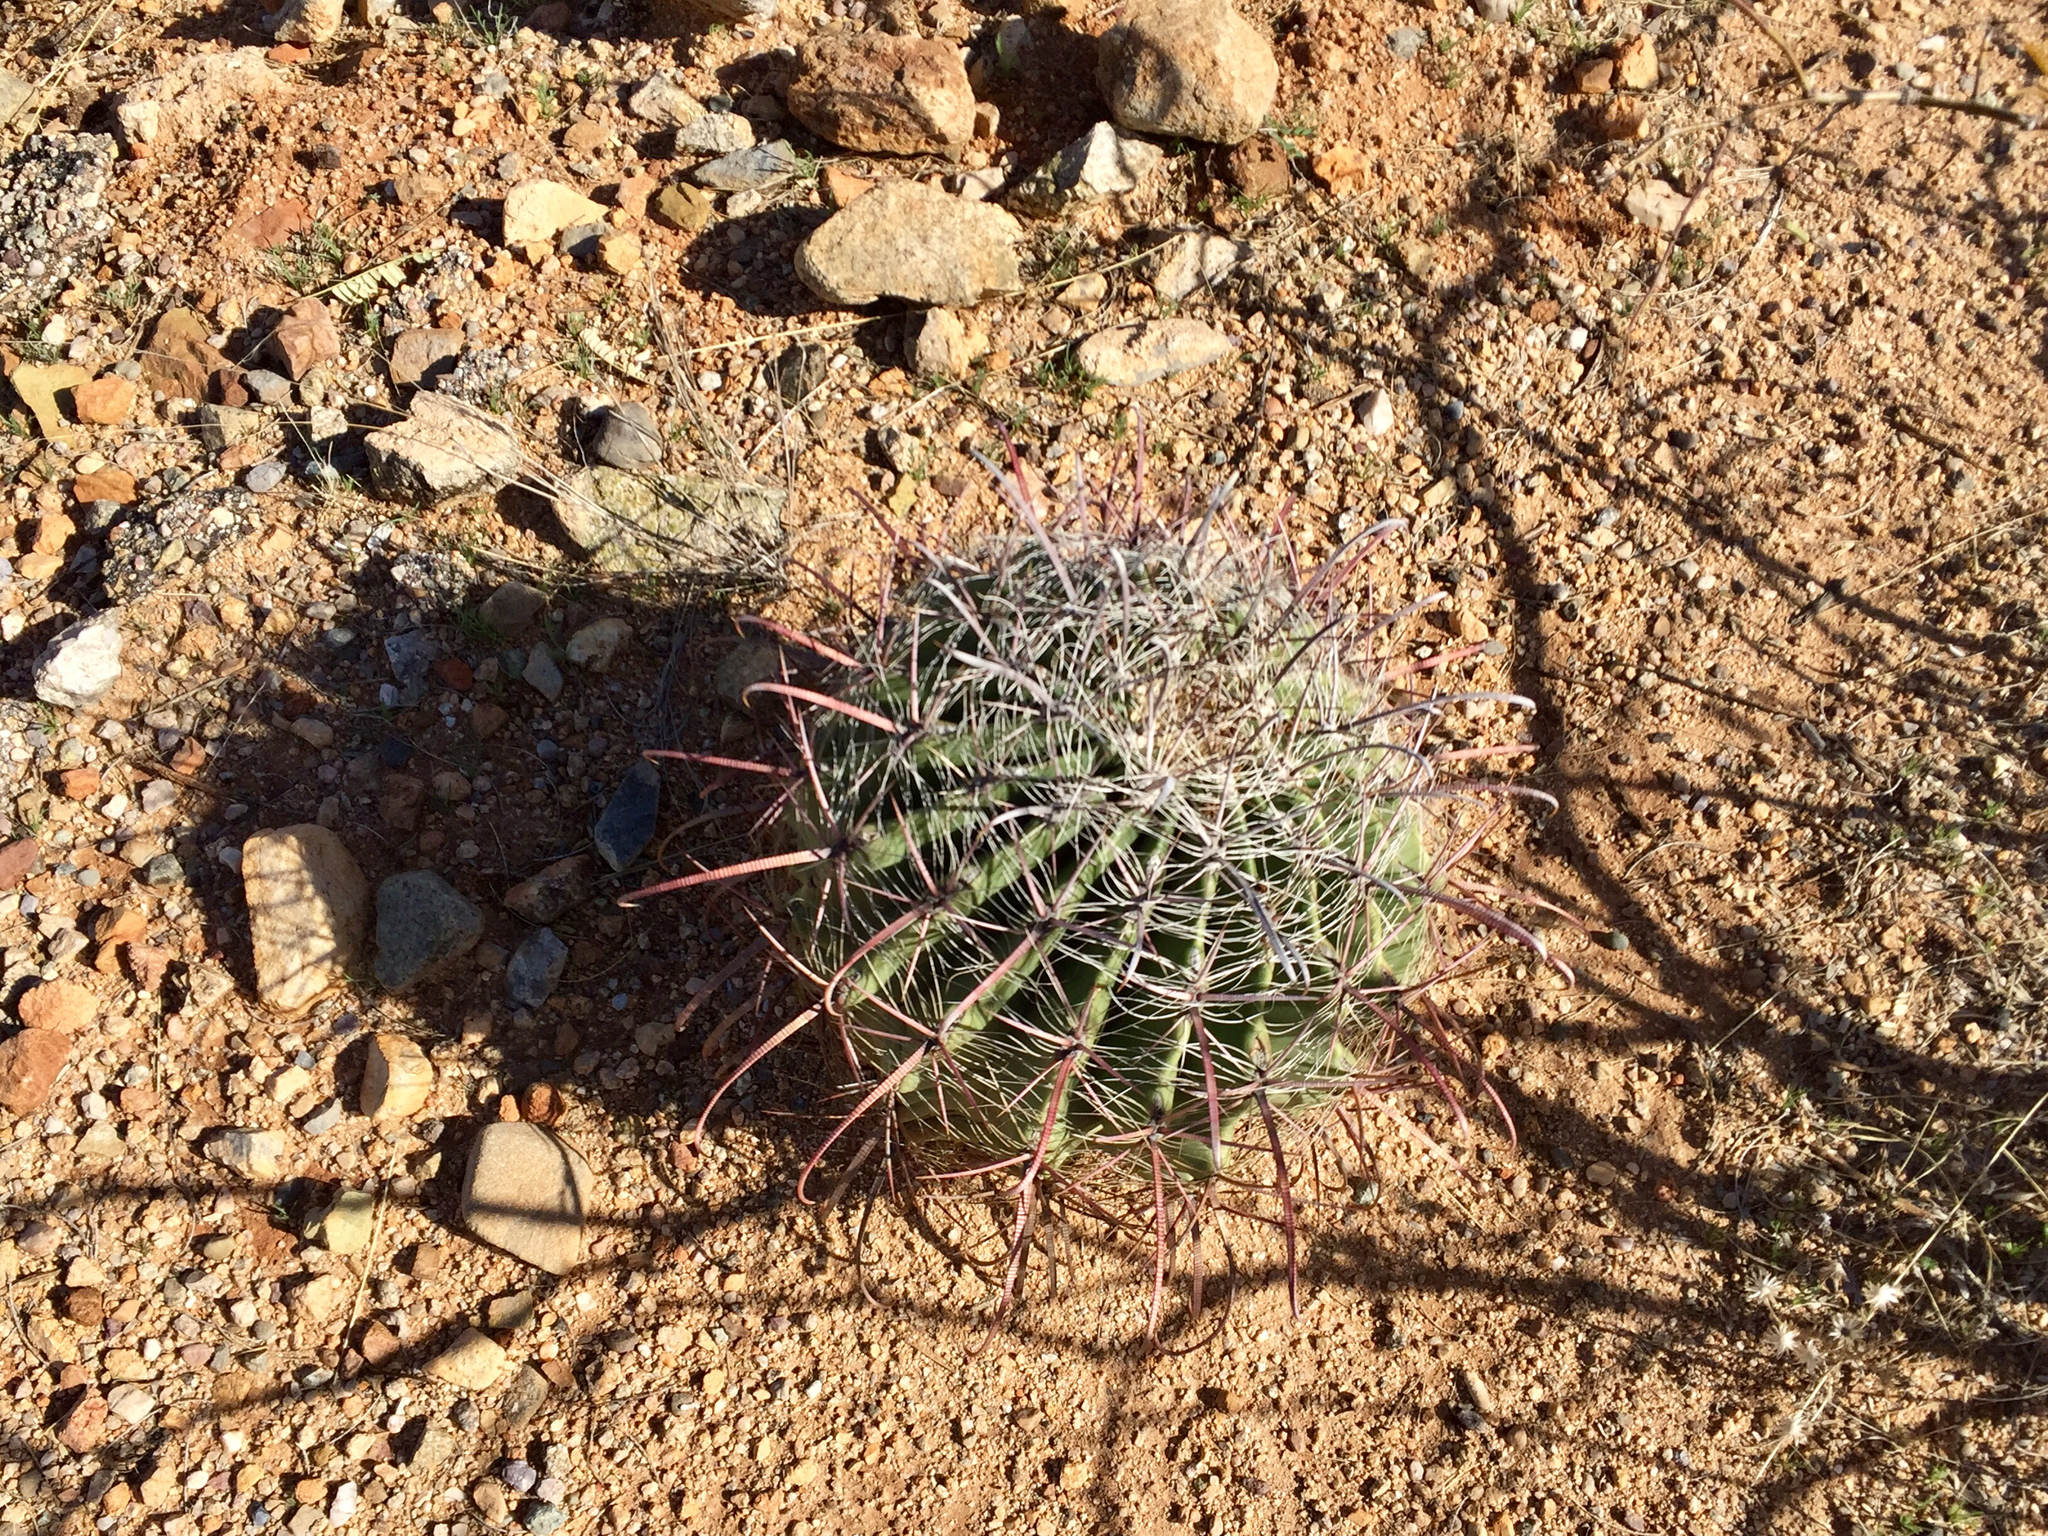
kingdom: Plantae
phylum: Tracheophyta
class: Magnoliopsida
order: Caryophyllales
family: Cactaceae
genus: Ferocactus
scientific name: Ferocactus wislizeni
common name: Candy barrel cactus
